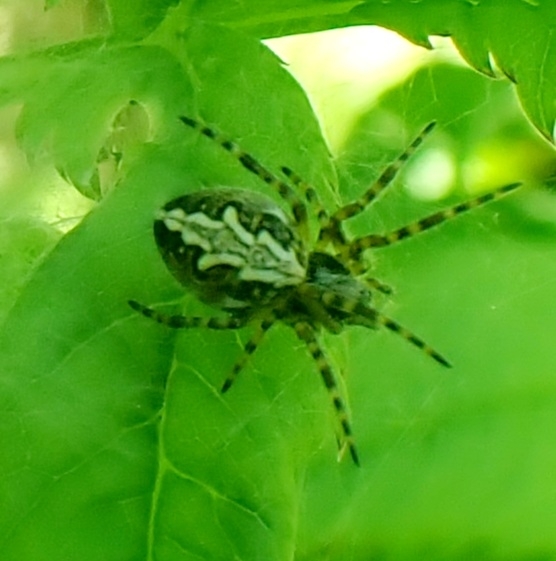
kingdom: Animalia
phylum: Arthropoda
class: Arachnida
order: Araneae
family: Araneidae
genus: Aculepeira
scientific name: Aculepeira
